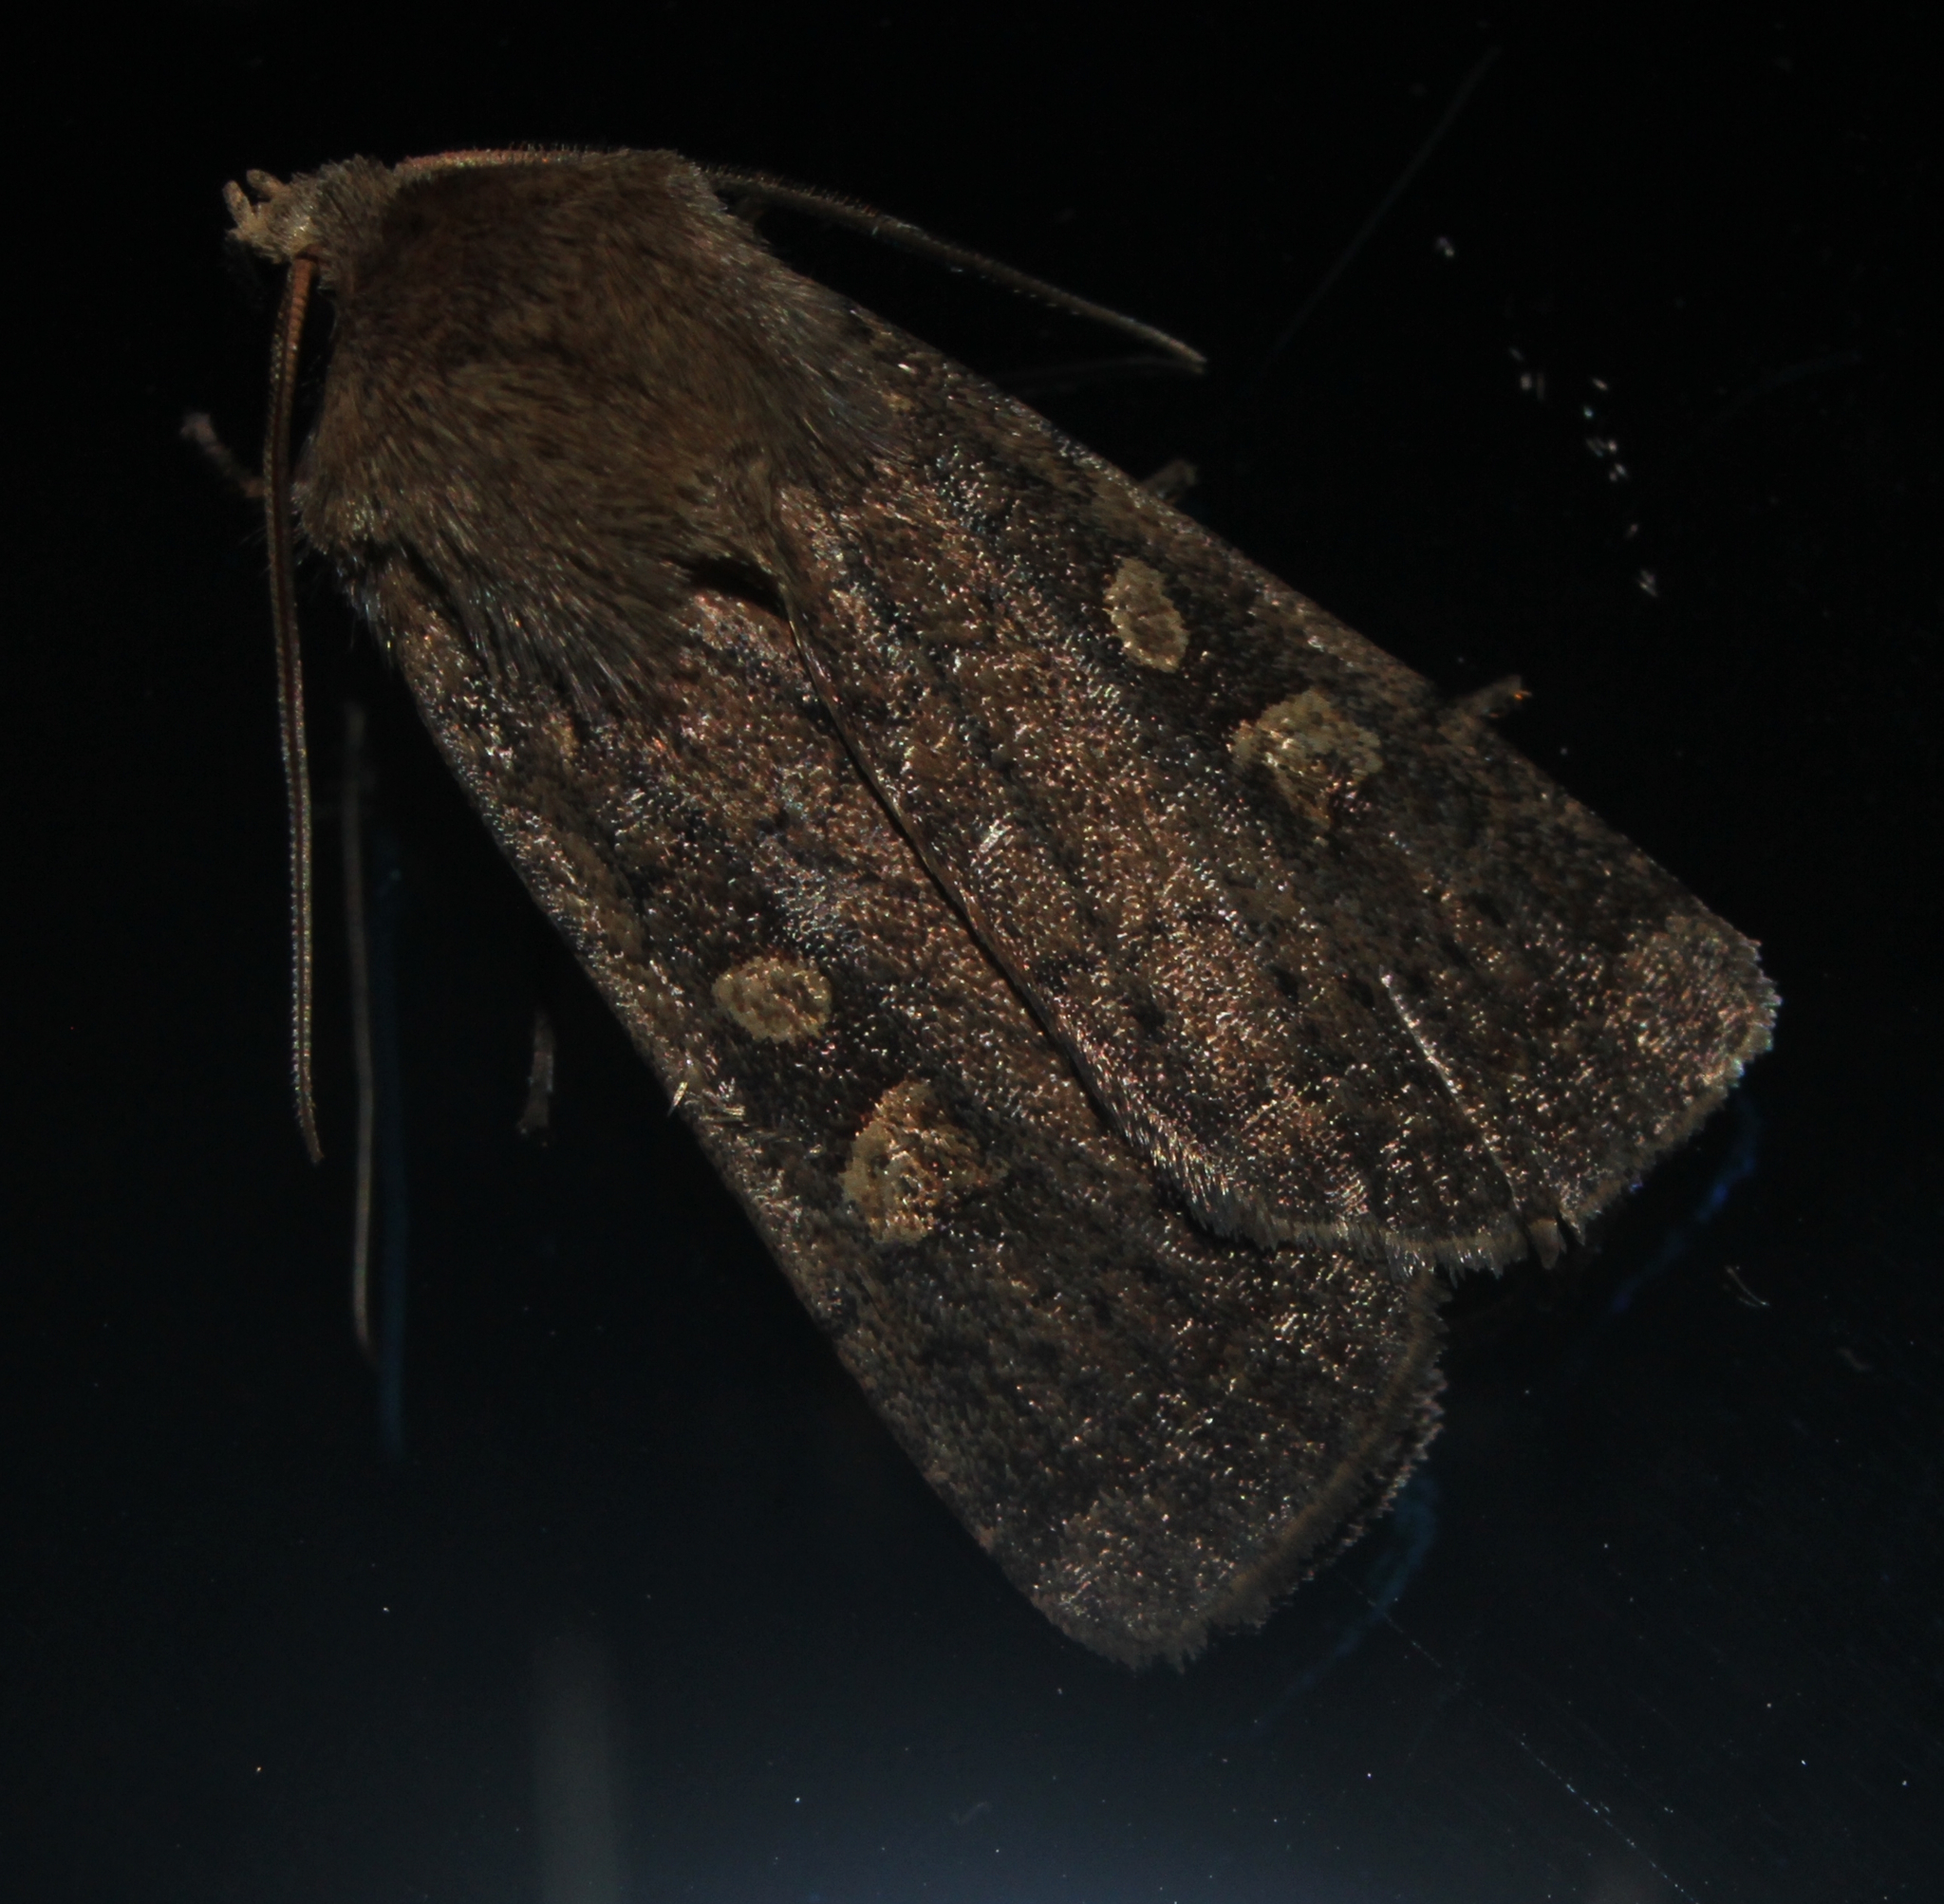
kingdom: Animalia
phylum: Arthropoda
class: Insecta
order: Lepidoptera
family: Noctuidae
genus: Xestia
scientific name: Xestia xanthographa
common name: Square-spot rustic
